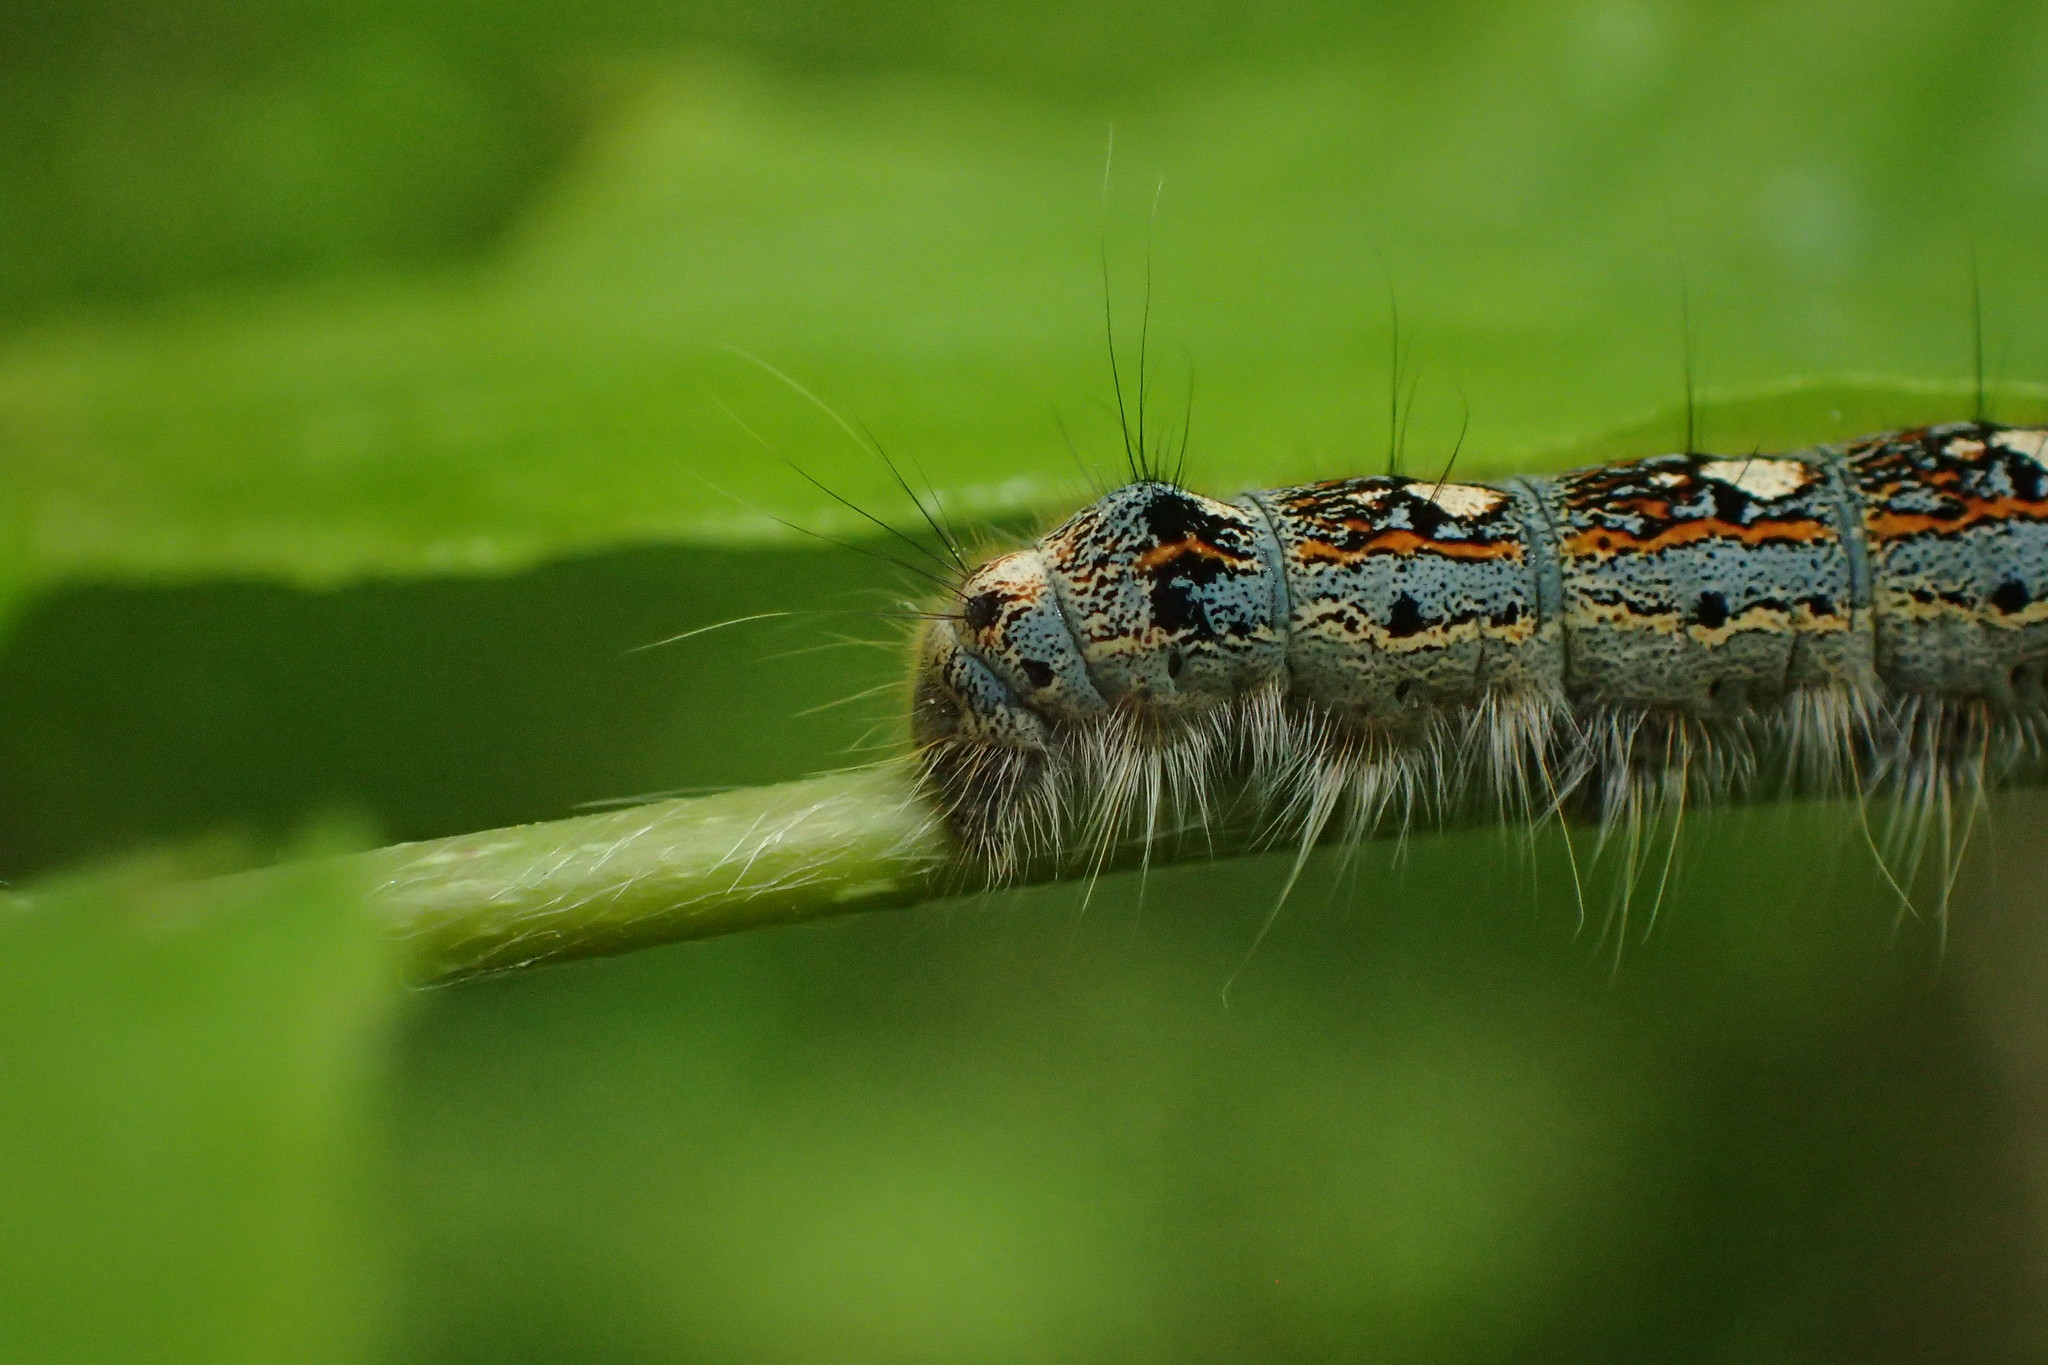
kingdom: Animalia
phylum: Arthropoda
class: Insecta
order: Lepidoptera
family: Lasiocampidae
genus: Malacosoma
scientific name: Malacosoma disstria
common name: Forest tent caterpillar
